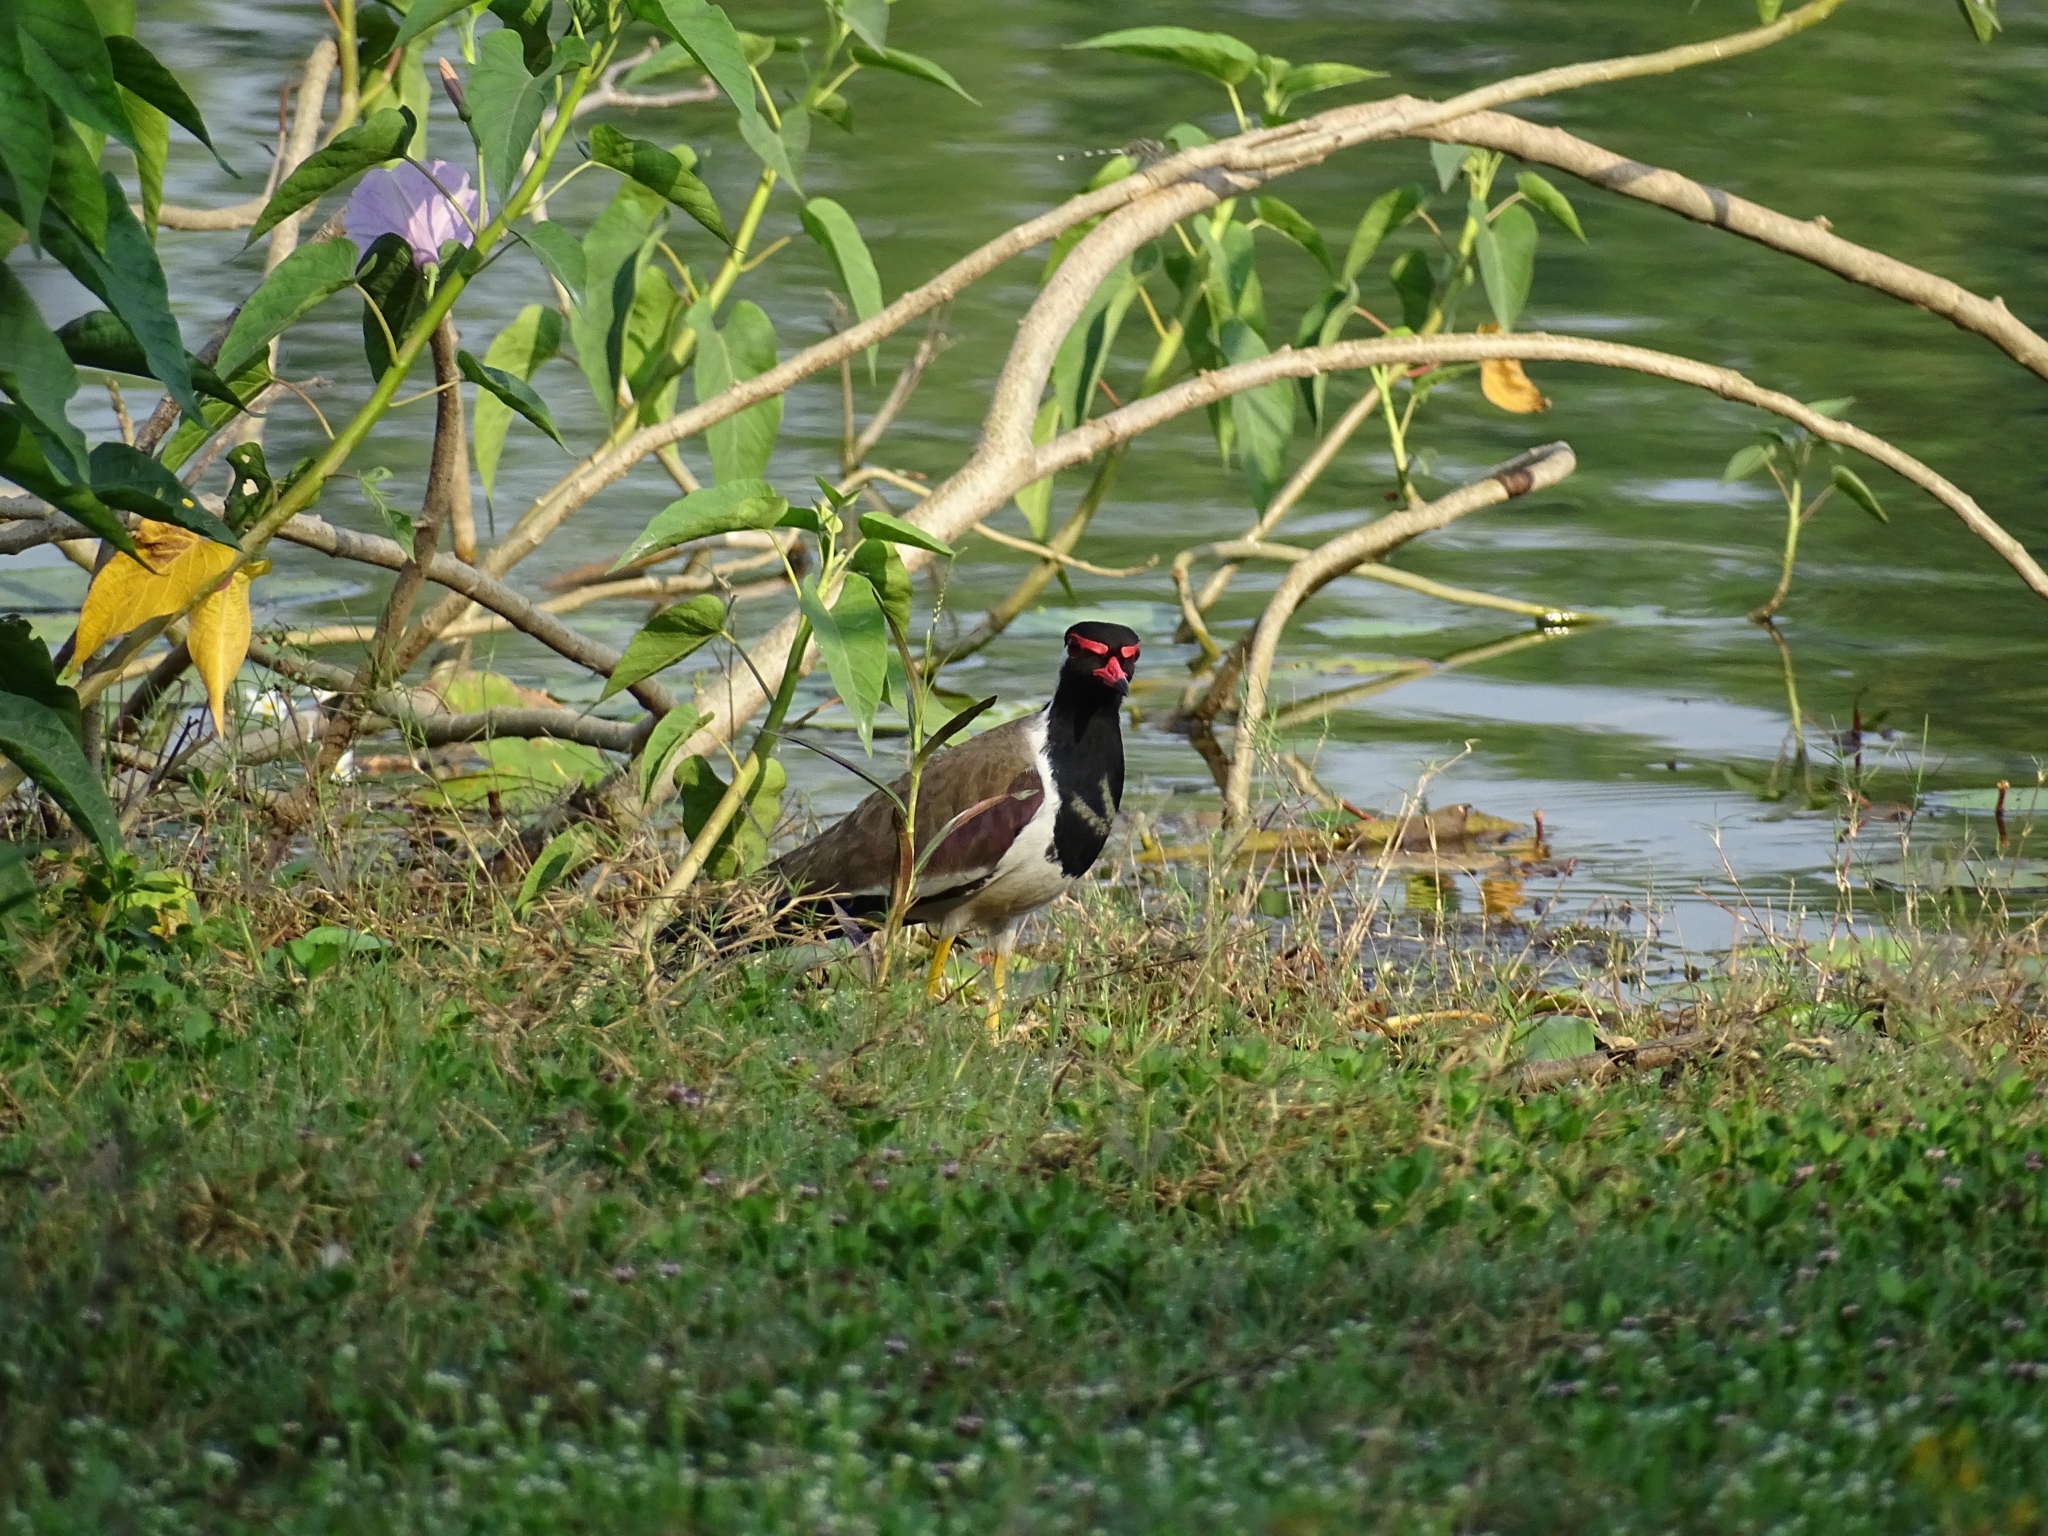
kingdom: Animalia
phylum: Chordata
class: Aves
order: Charadriiformes
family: Charadriidae
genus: Vanellus
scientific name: Vanellus indicus
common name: Red-wattled lapwing
